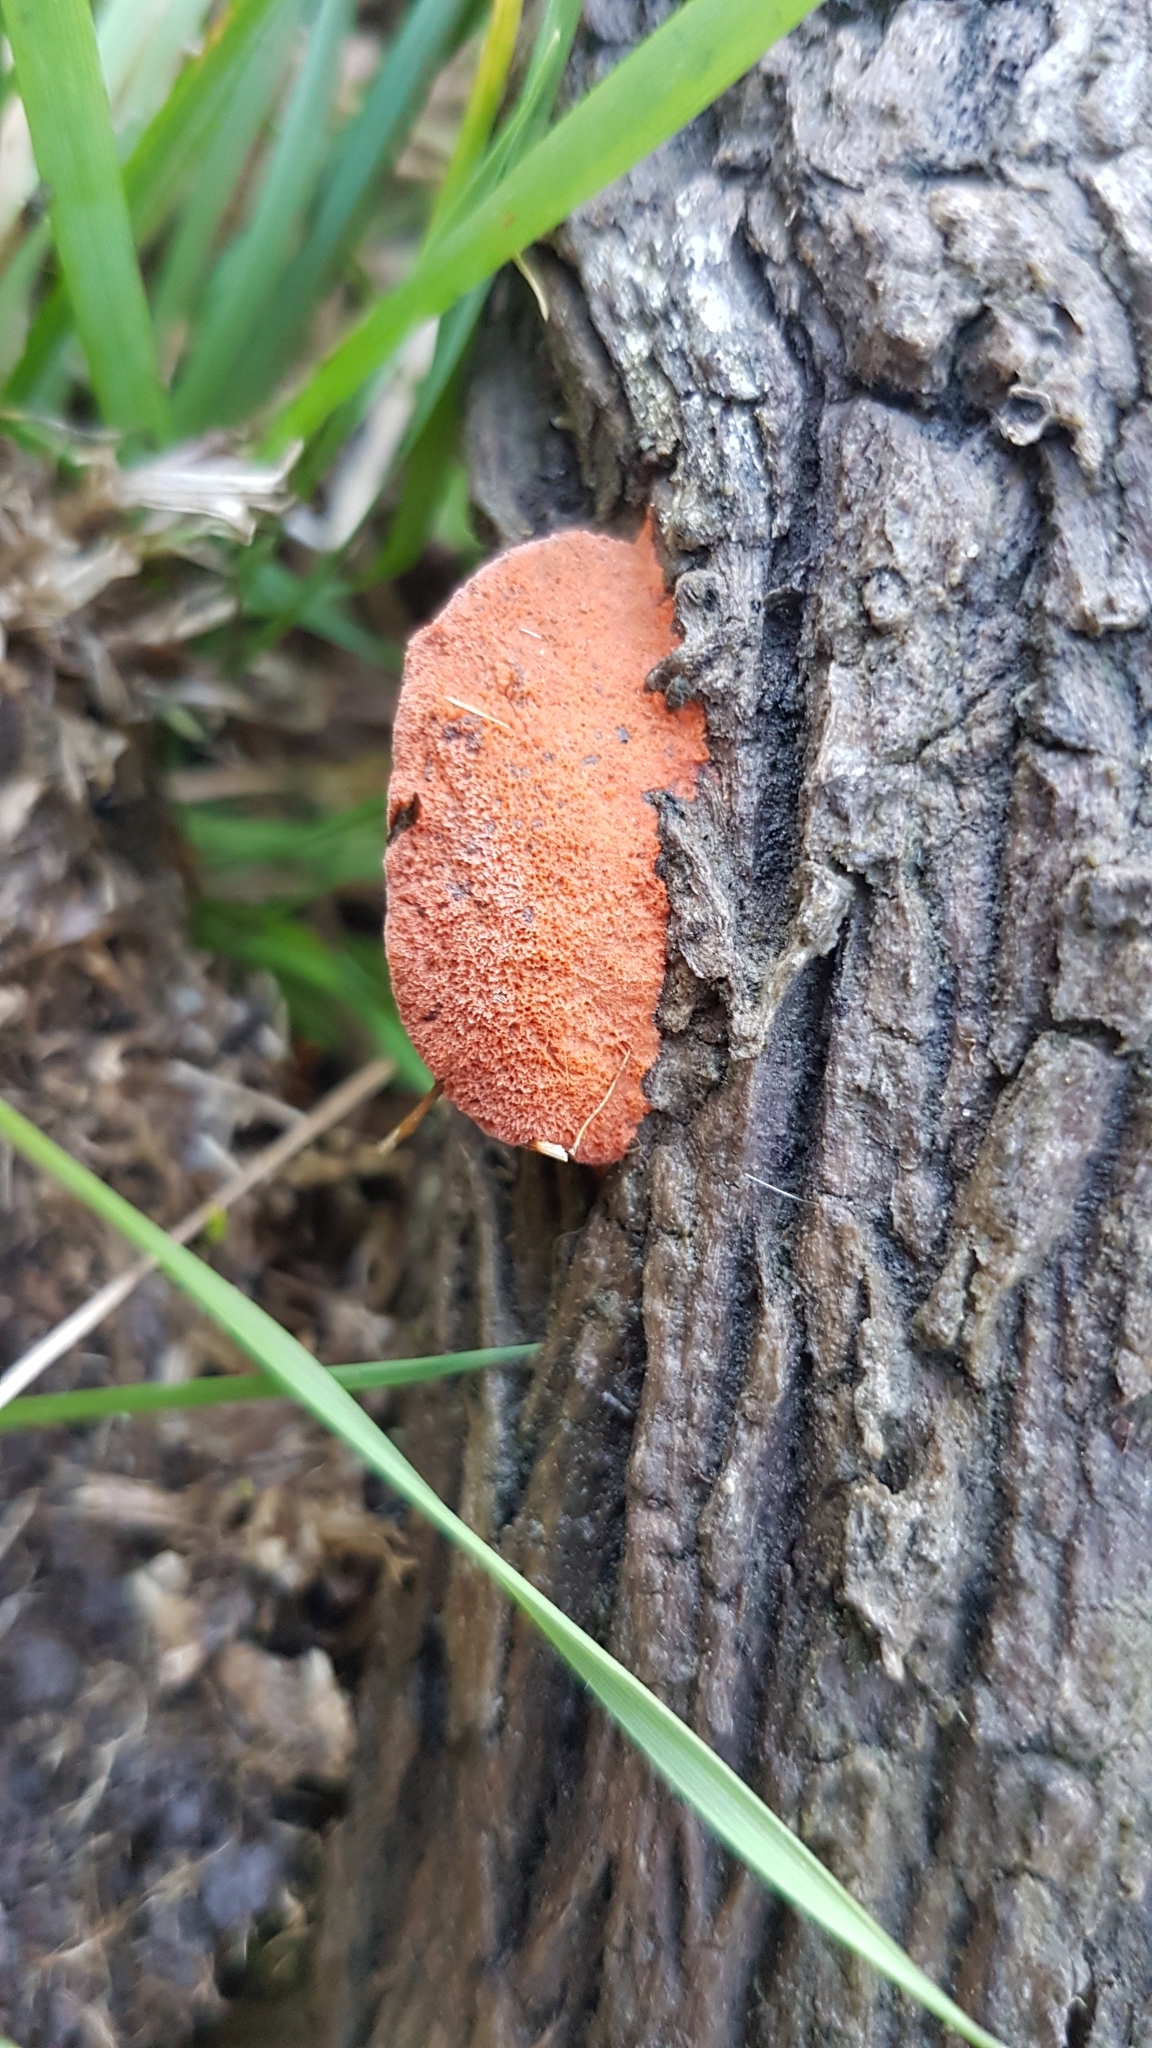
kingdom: Fungi
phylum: Basidiomycota
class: Agaricomycetes
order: Polyporales
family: Polyporaceae
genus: Trametes
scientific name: Trametes coccinea
